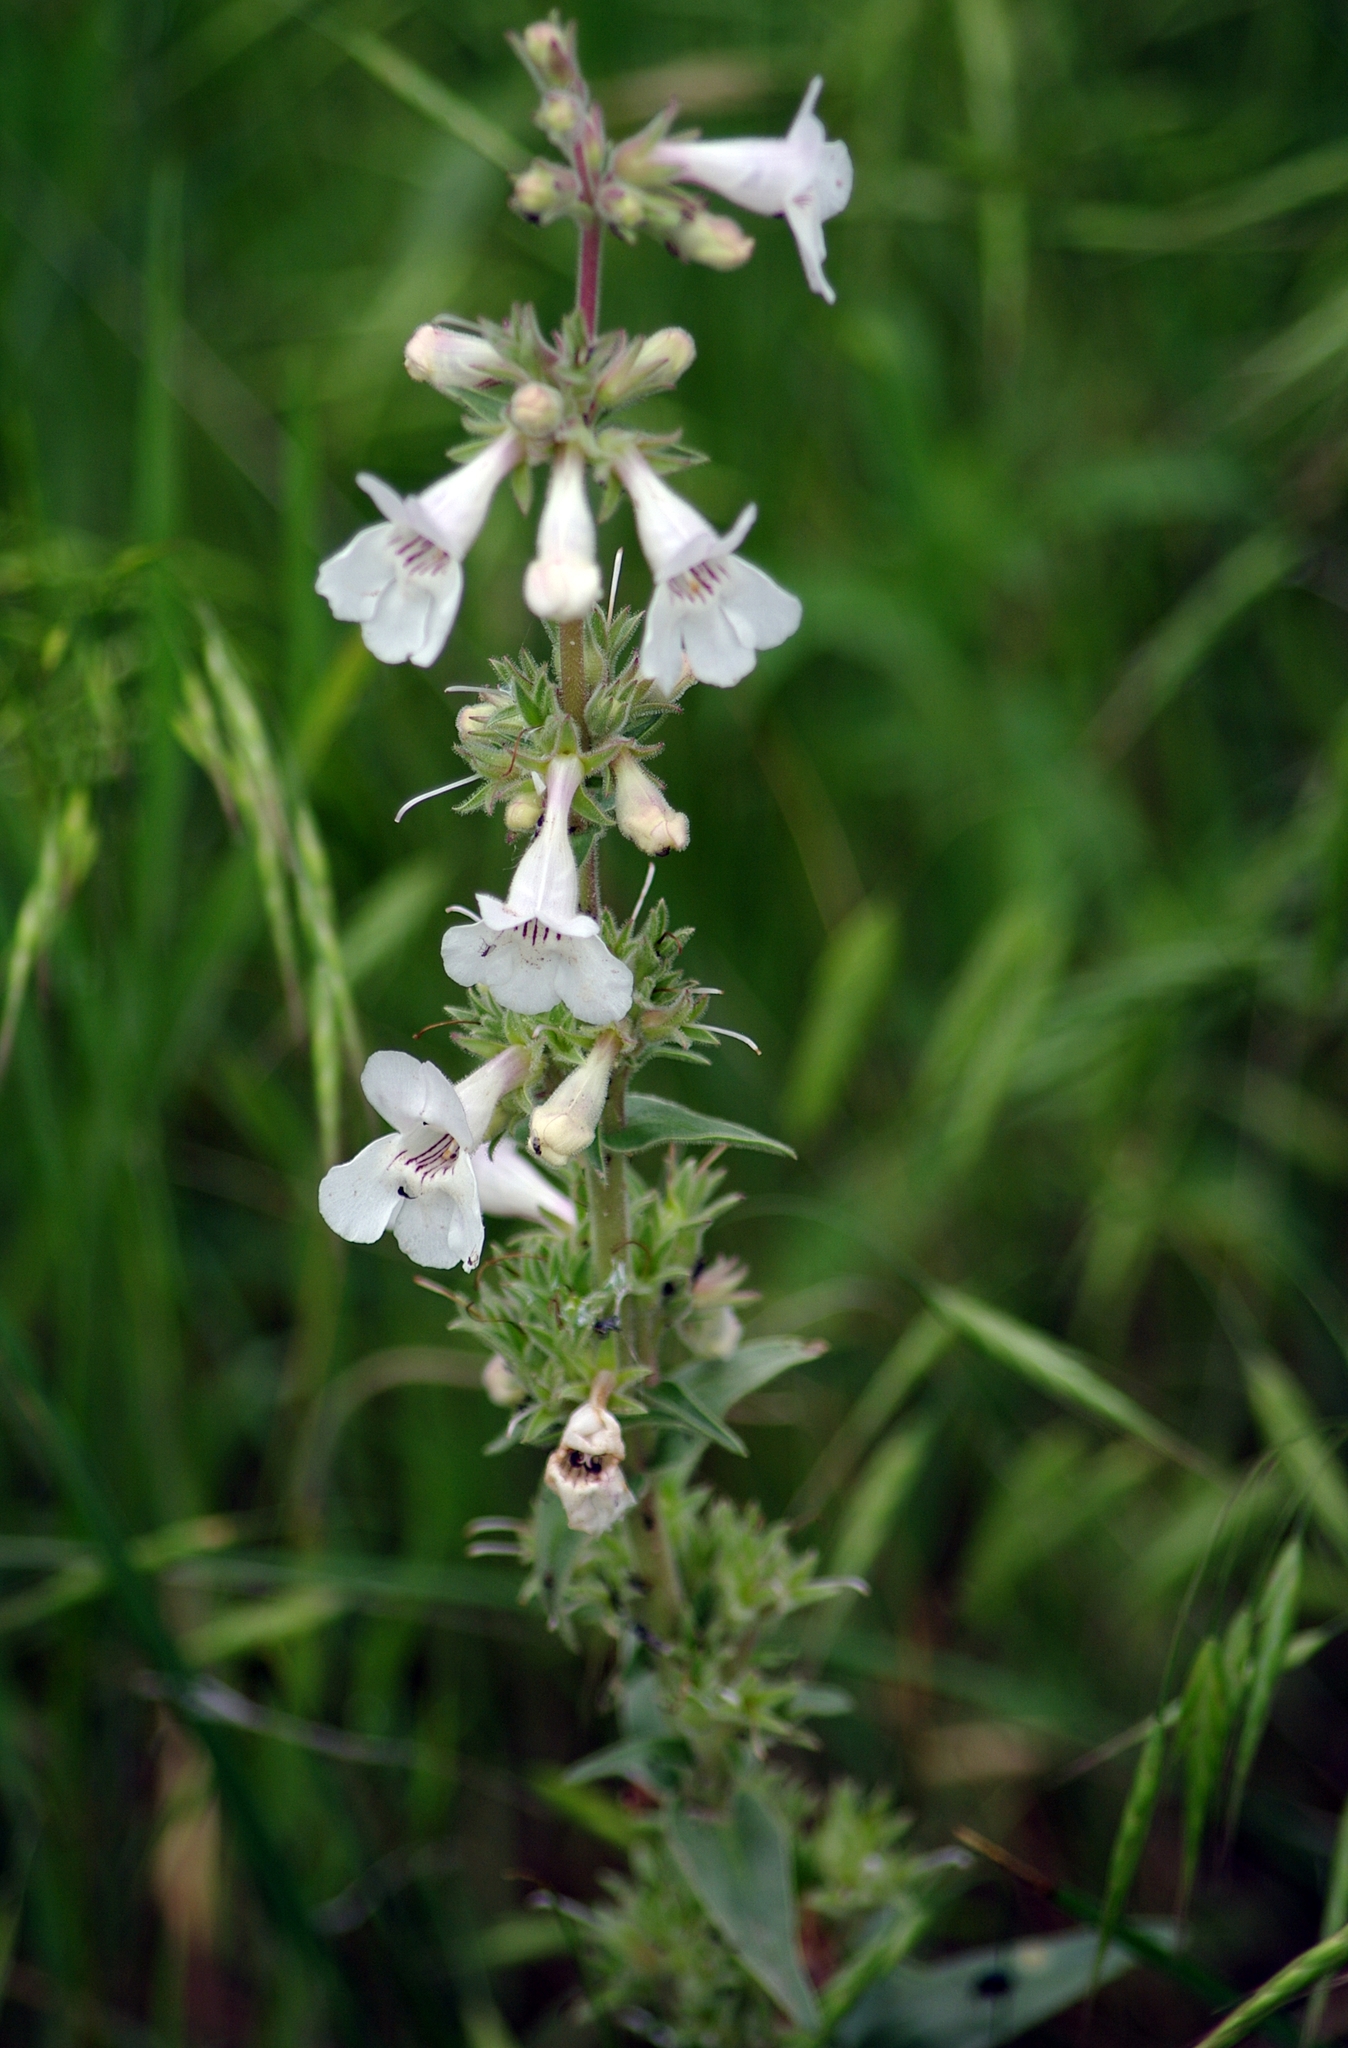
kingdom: Plantae
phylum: Tracheophyta
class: Magnoliopsida
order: Lamiales
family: Plantaginaceae
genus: Penstemon
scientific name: Penstemon albidus
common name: White beardtongue
